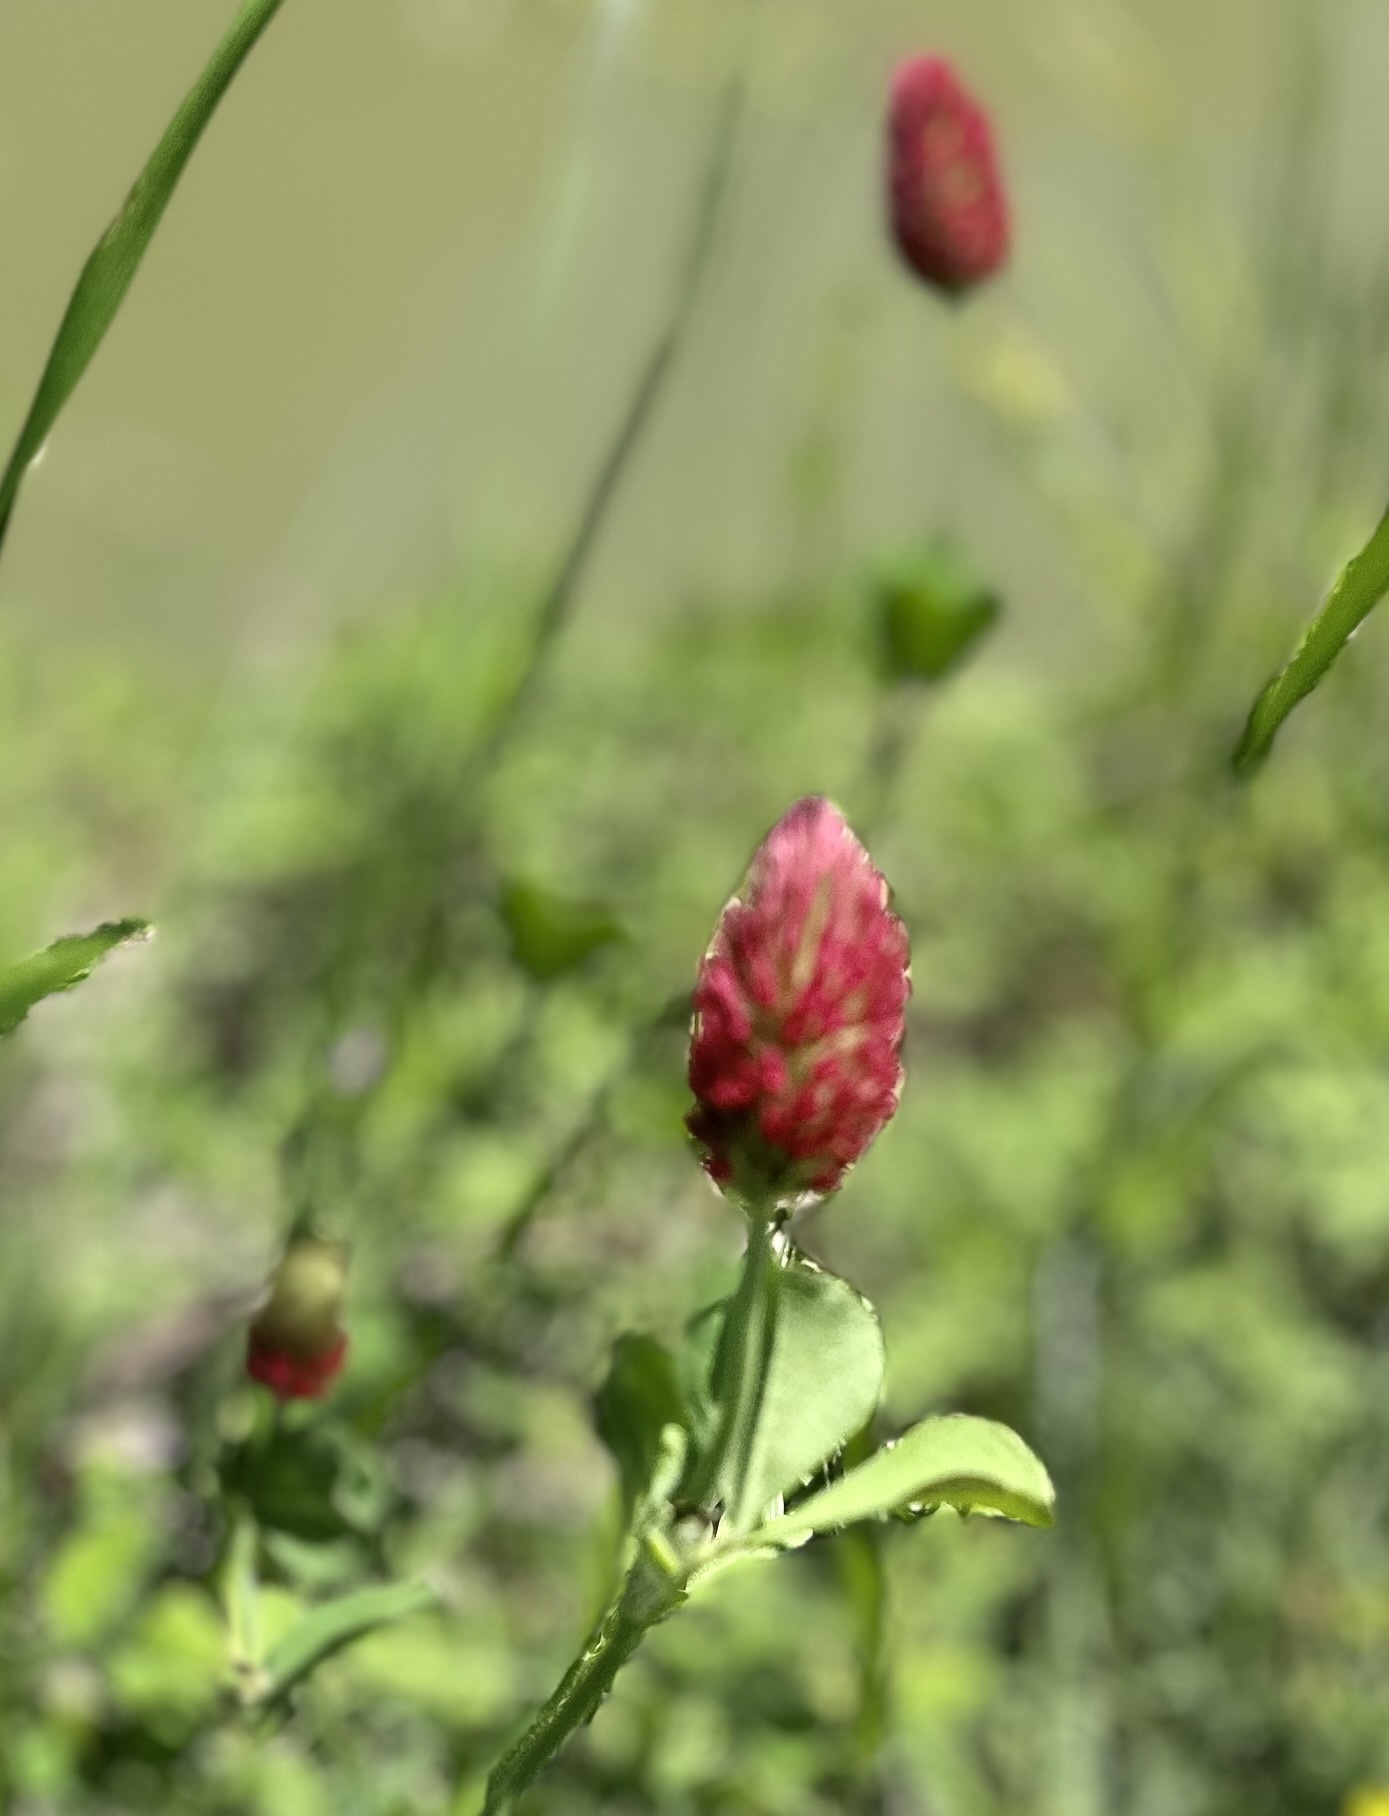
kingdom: Plantae
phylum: Tracheophyta
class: Magnoliopsida
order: Fabales
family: Fabaceae
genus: Trifolium
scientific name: Trifolium incarnatum
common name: Crimson clover
